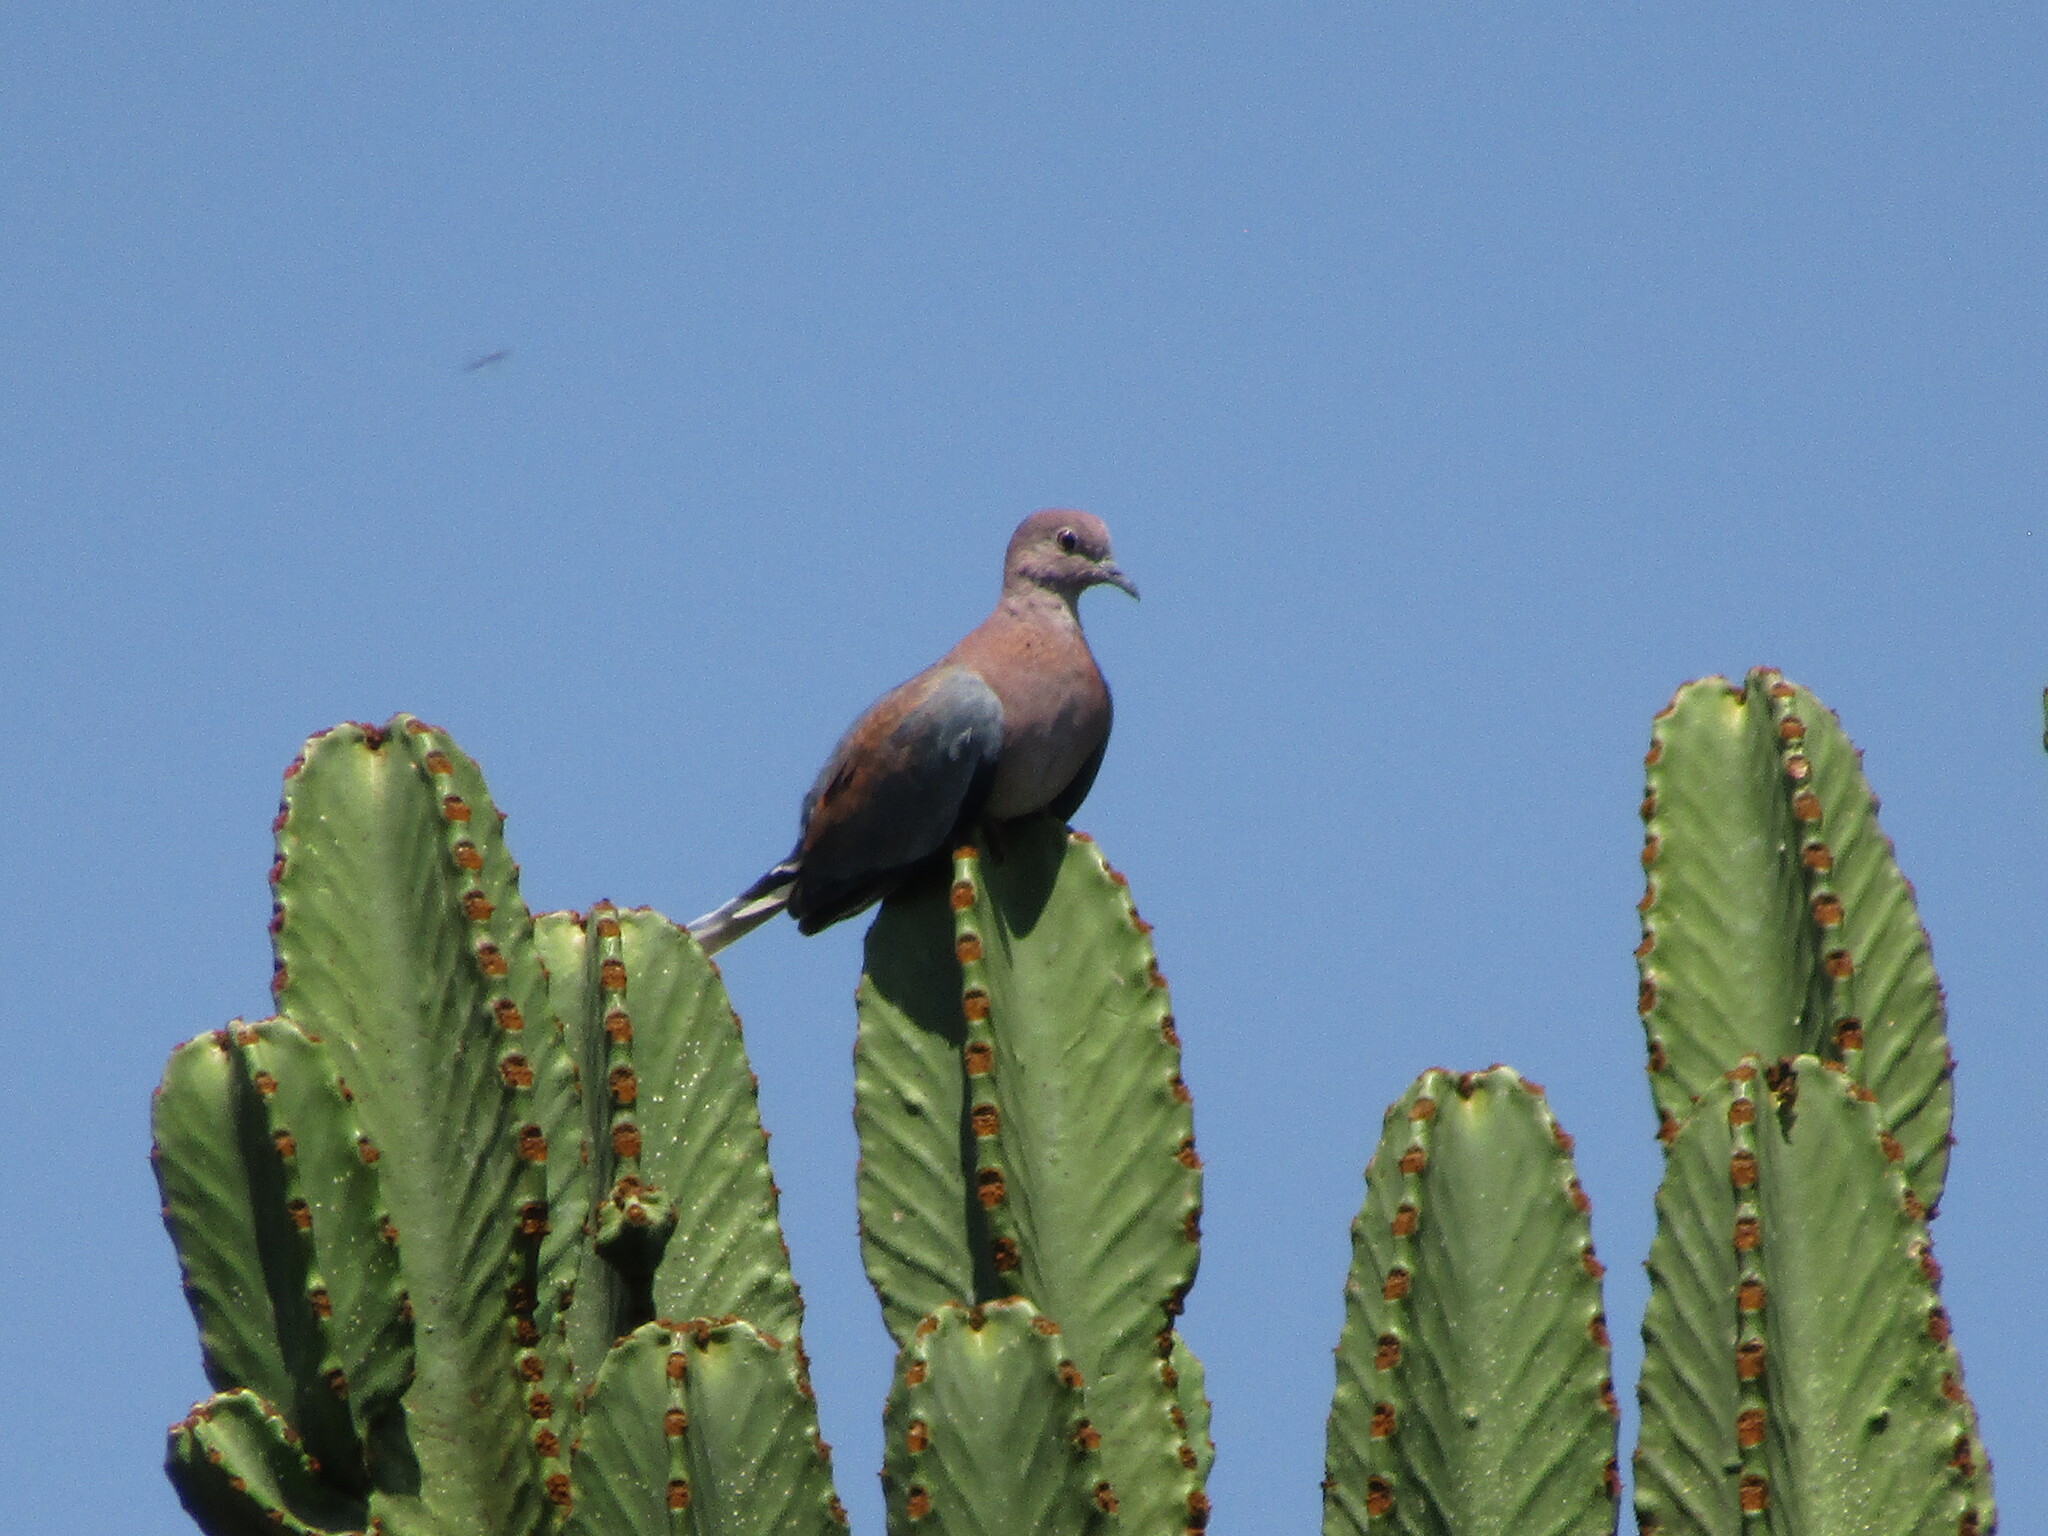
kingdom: Animalia
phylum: Chordata
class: Aves
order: Columbiformes
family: Columbidae
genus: Spilopelia
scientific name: Spilopelia senegalensis
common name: Laughing dove
